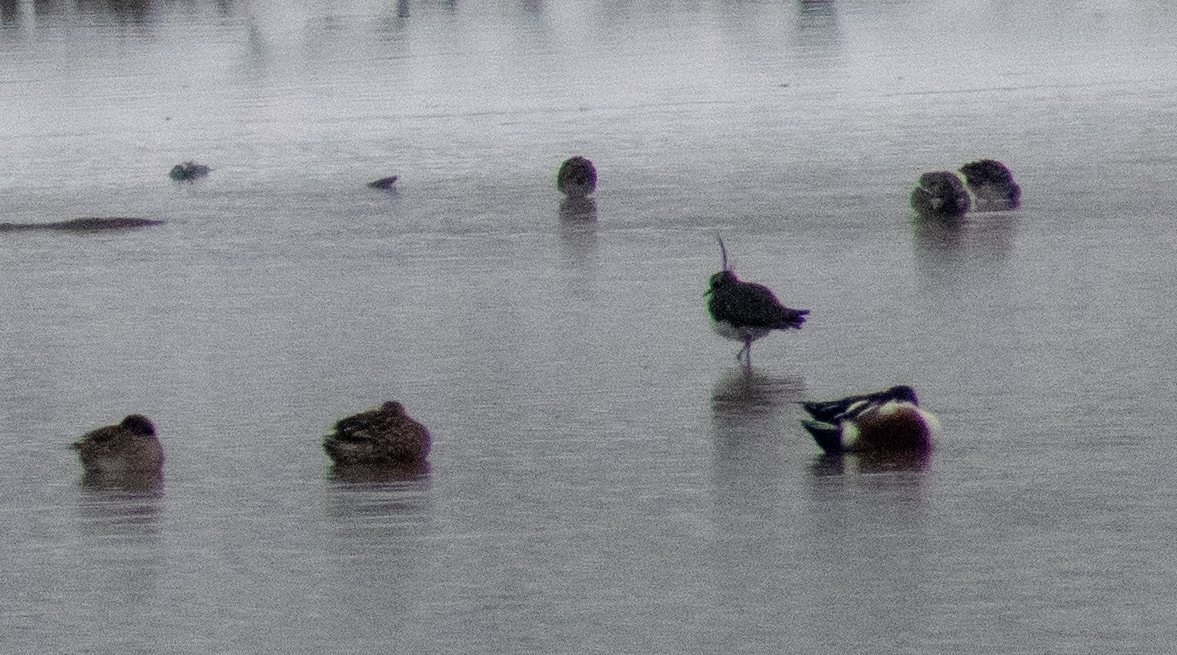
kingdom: Animalia
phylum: Chordata
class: Aves
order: Anseriformes
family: Anatidae
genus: Anas
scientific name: Anas crecca
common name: Eurasian teal
